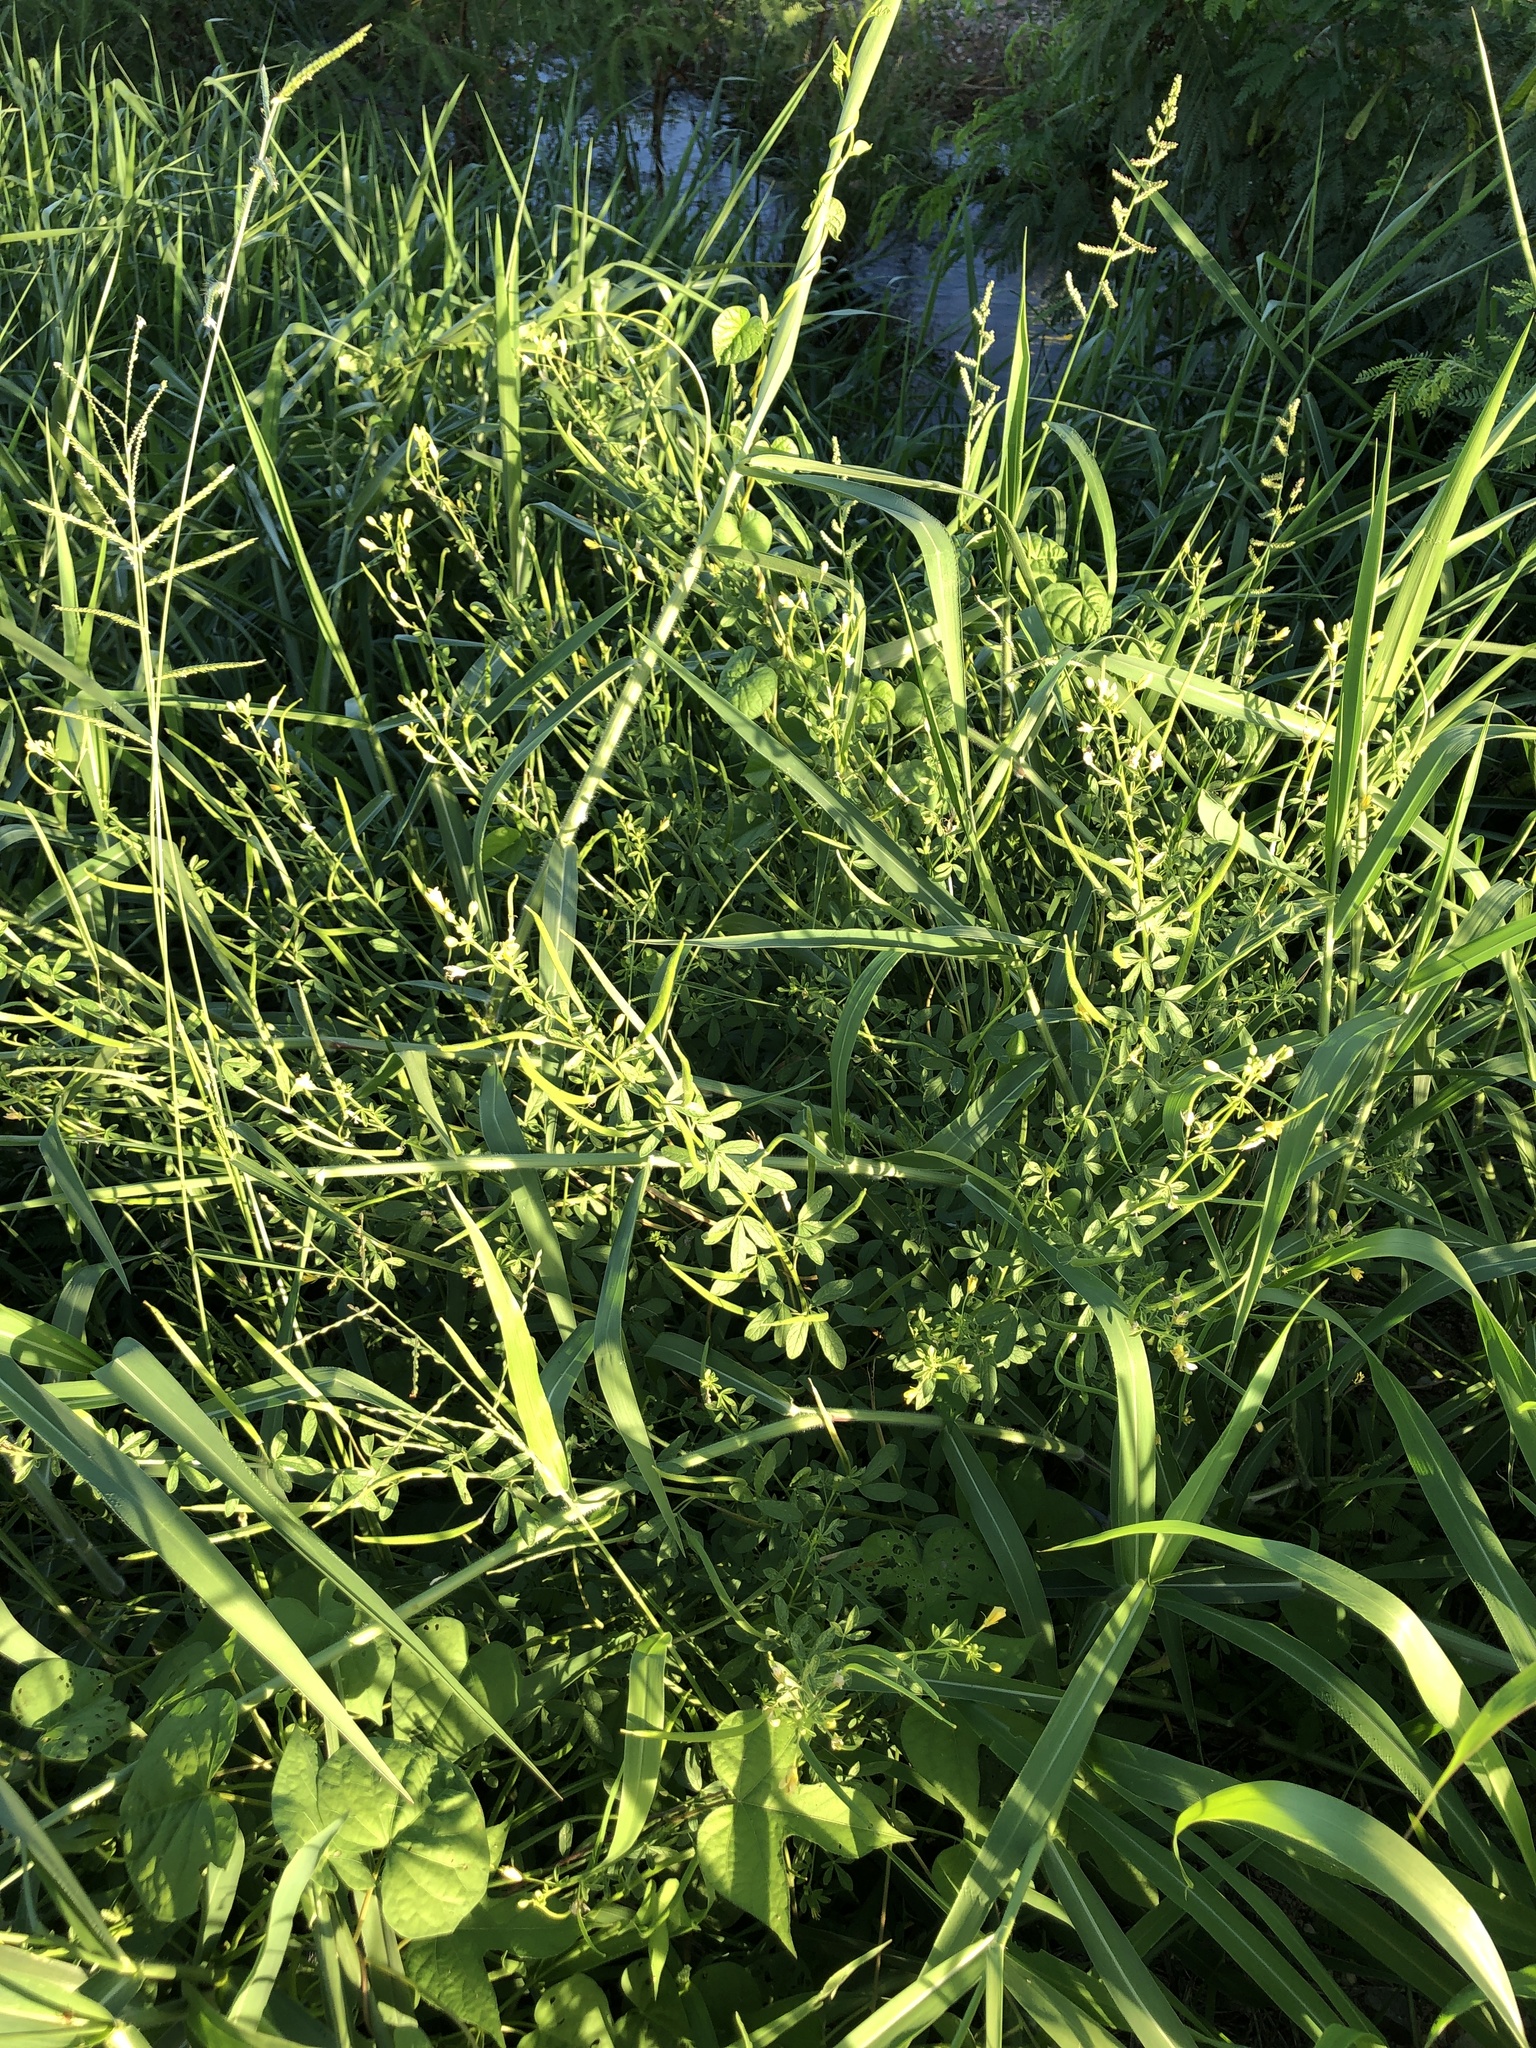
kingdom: Plantae
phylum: Tracheophyta
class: Magnoliopsida
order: Brassicales
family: Cleomaceae
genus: Arivela
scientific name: Arivela viscosa
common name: Asian spiderflower
